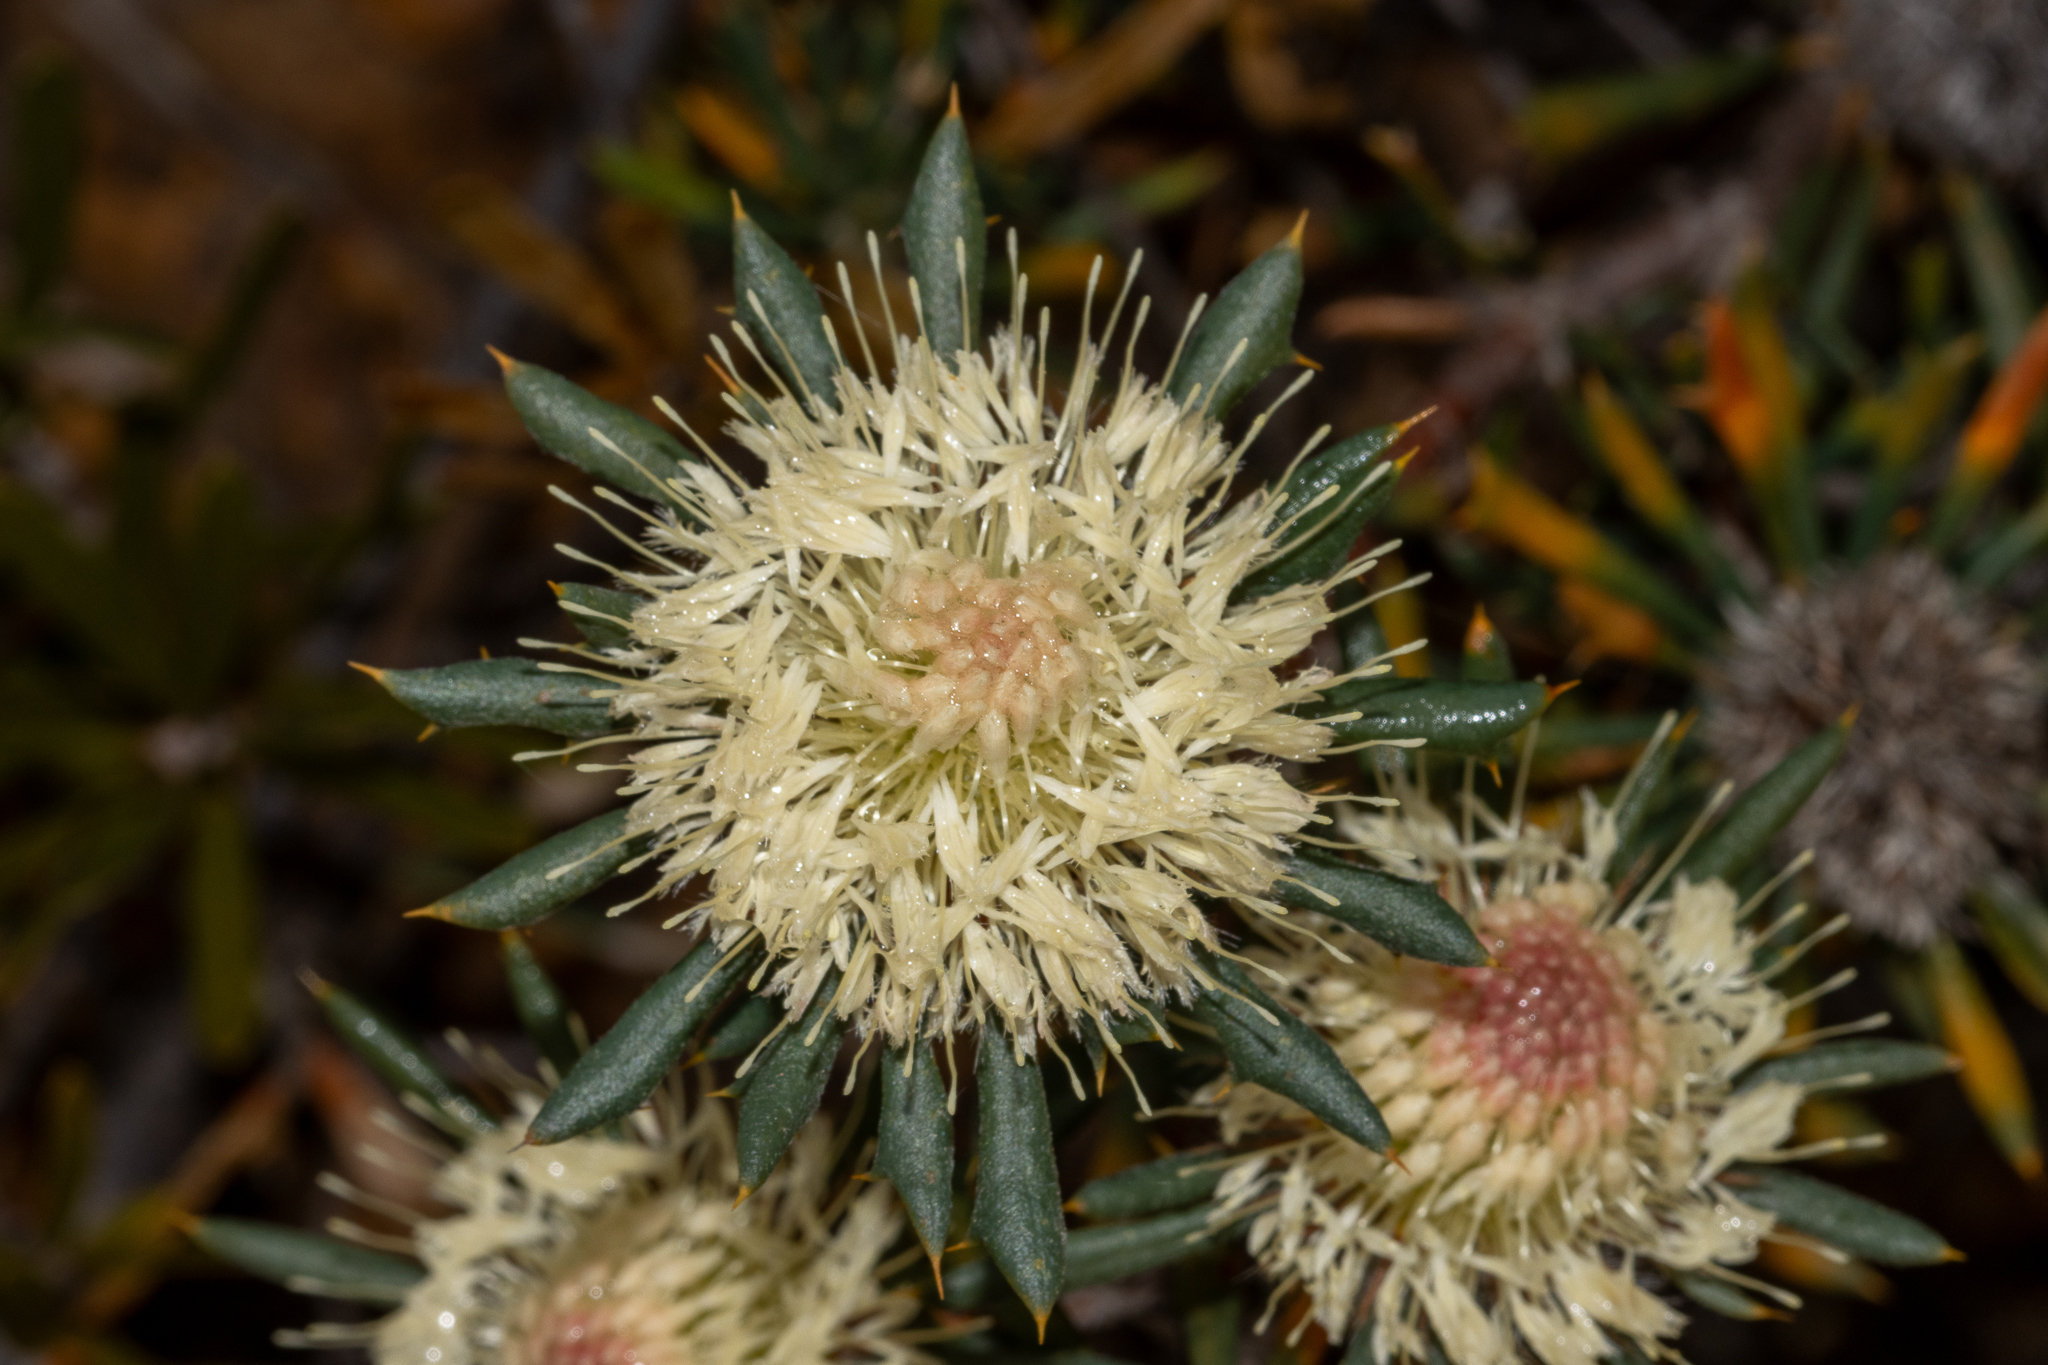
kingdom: Plantae
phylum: Tracheophyta
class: Magnoliopsida
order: Proteales
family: Proteaceae
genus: Banksia
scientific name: Banksia carlinoides
